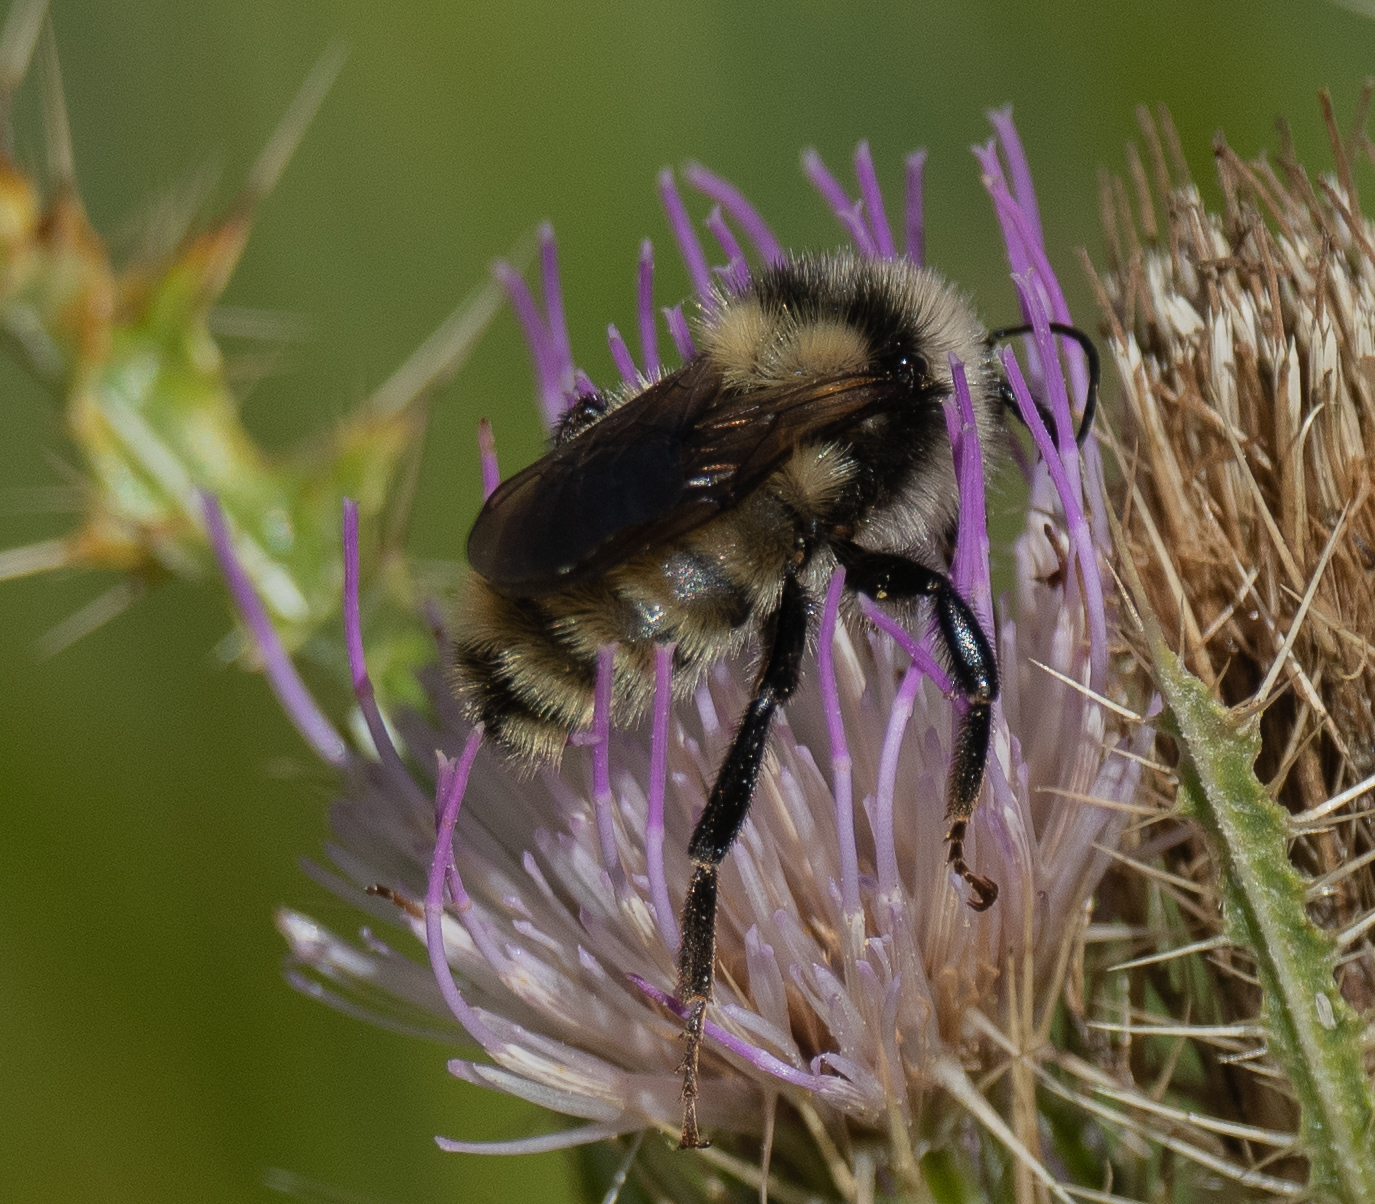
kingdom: Animalia
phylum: Arthropoda
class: Insecta
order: Hymenoptera
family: Apidae
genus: Bombus
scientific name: Bombus appositus
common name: White-shouldered bumble bee
